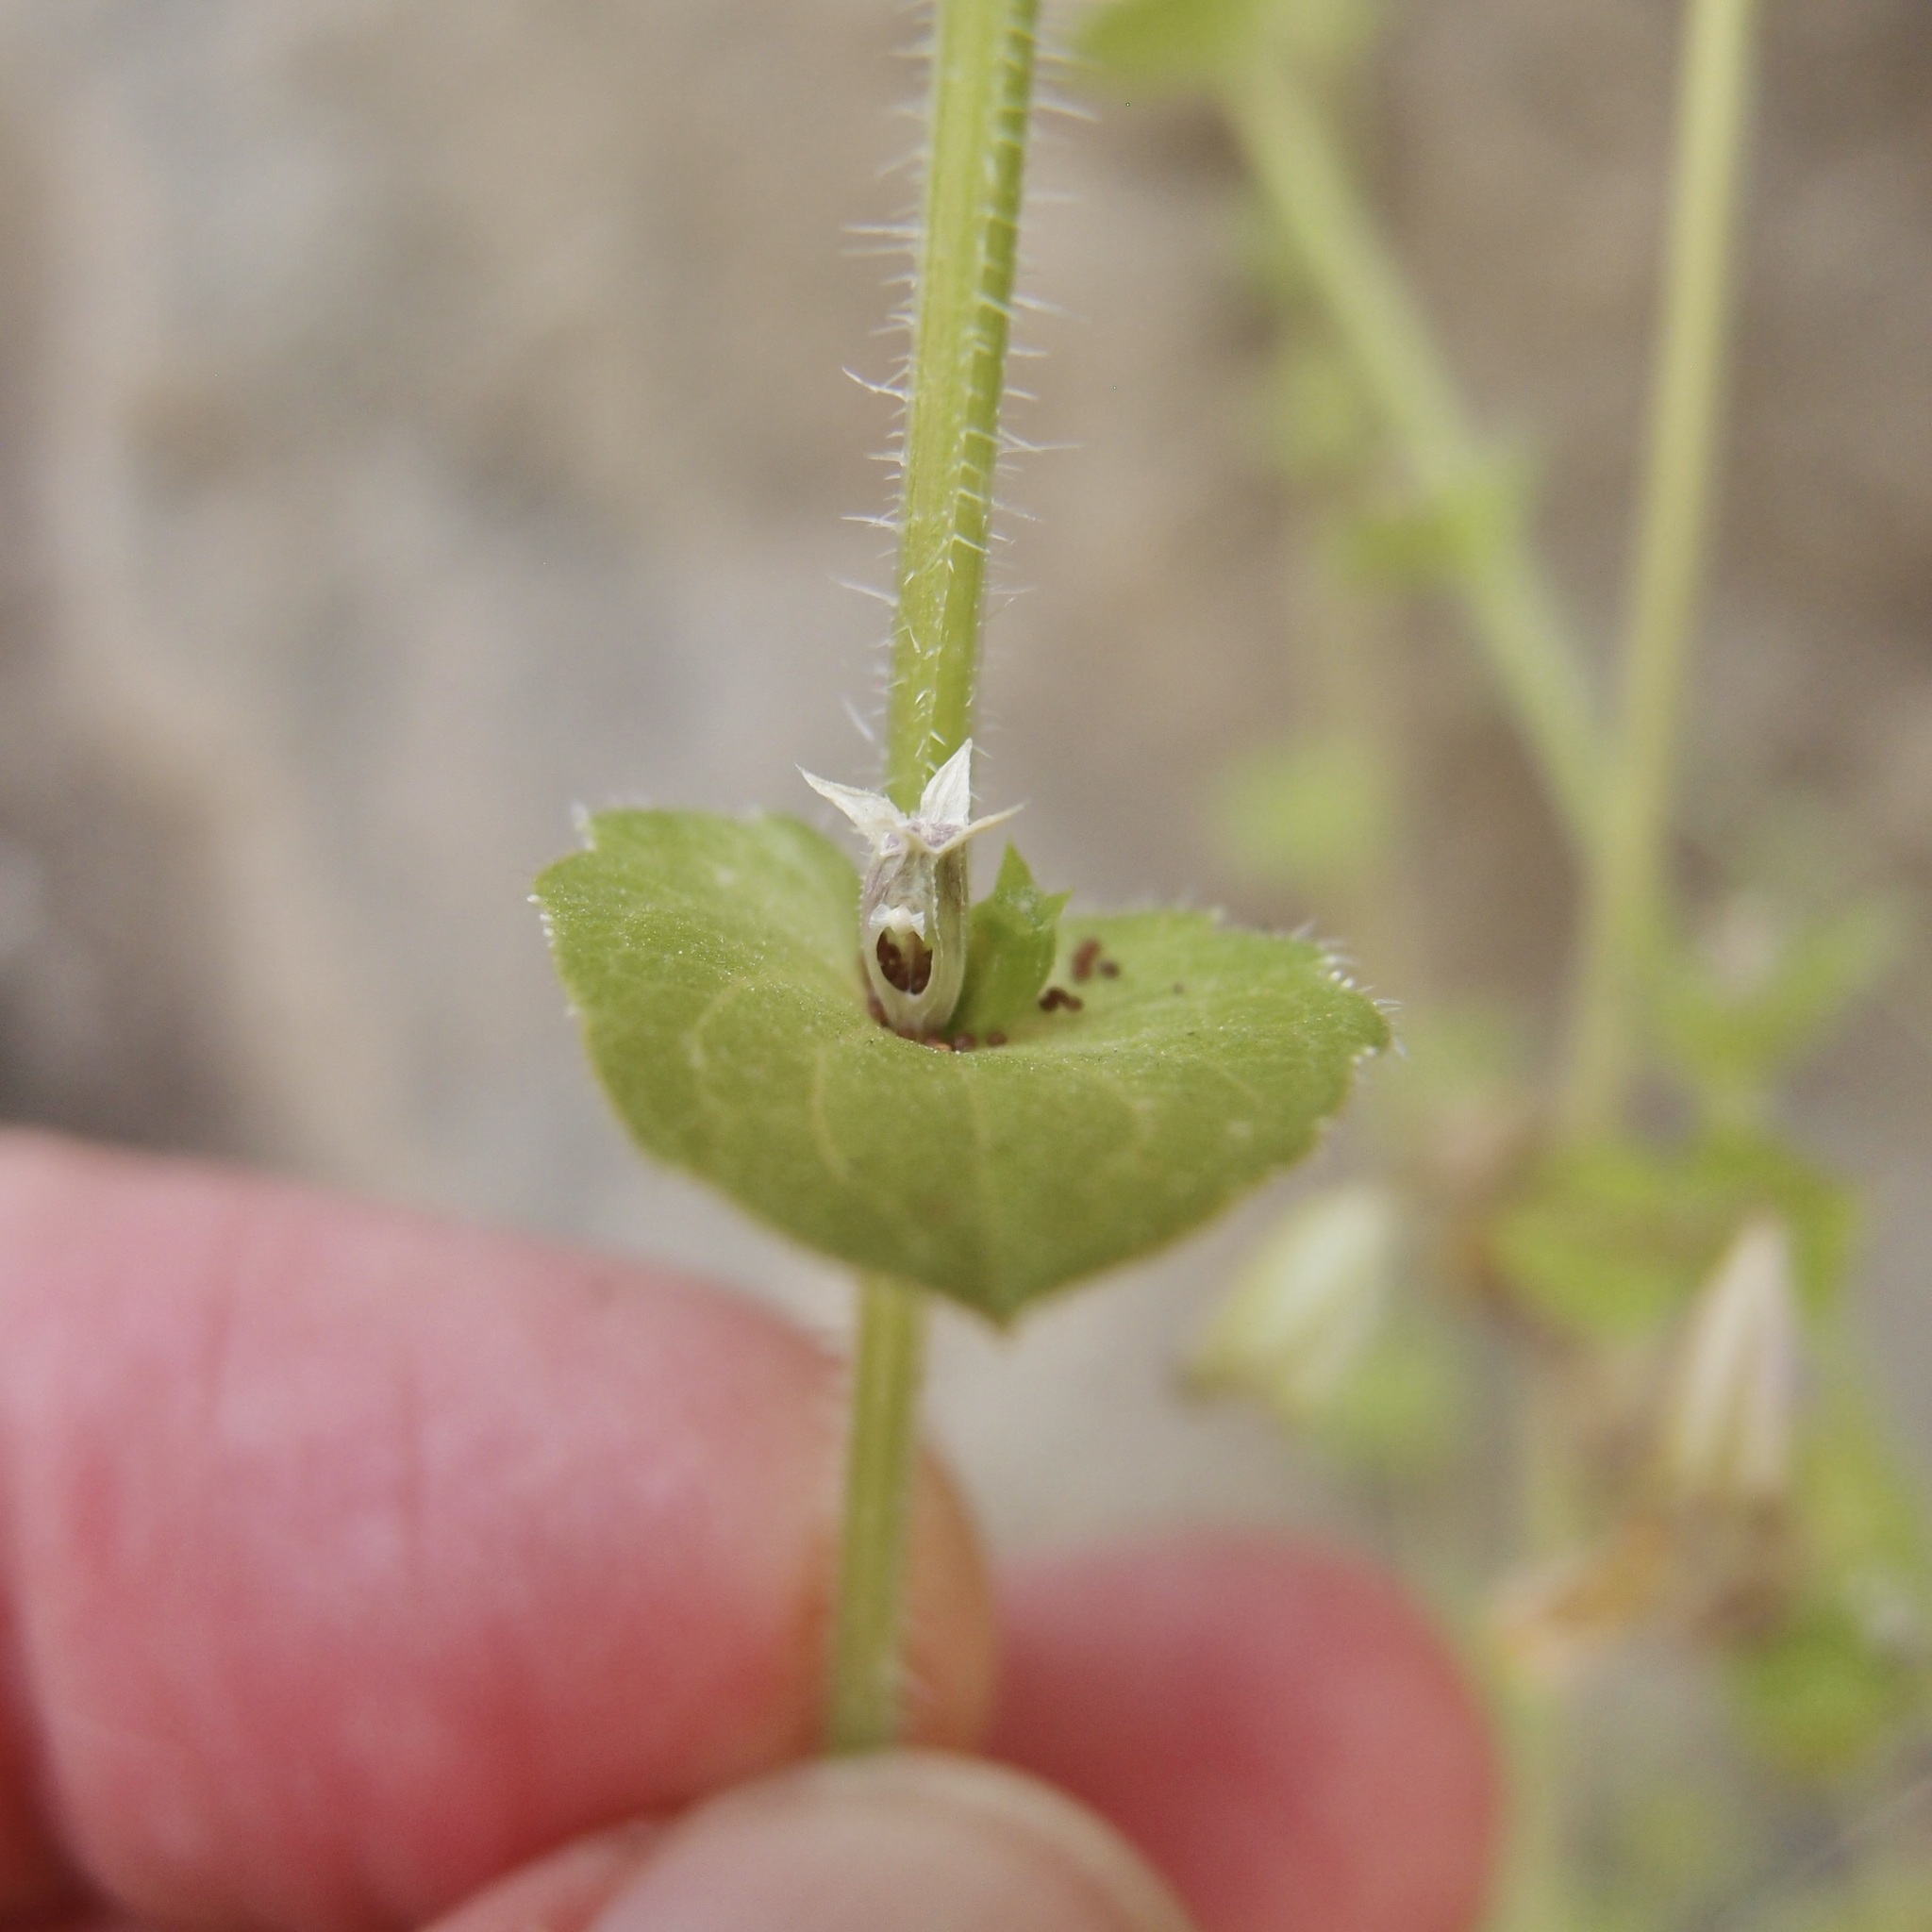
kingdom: Plantae
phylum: Tracheophyta
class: Magnoliopsida
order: Asterales
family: Campanulaceae
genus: Triodanis
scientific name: Triodanis biflora
